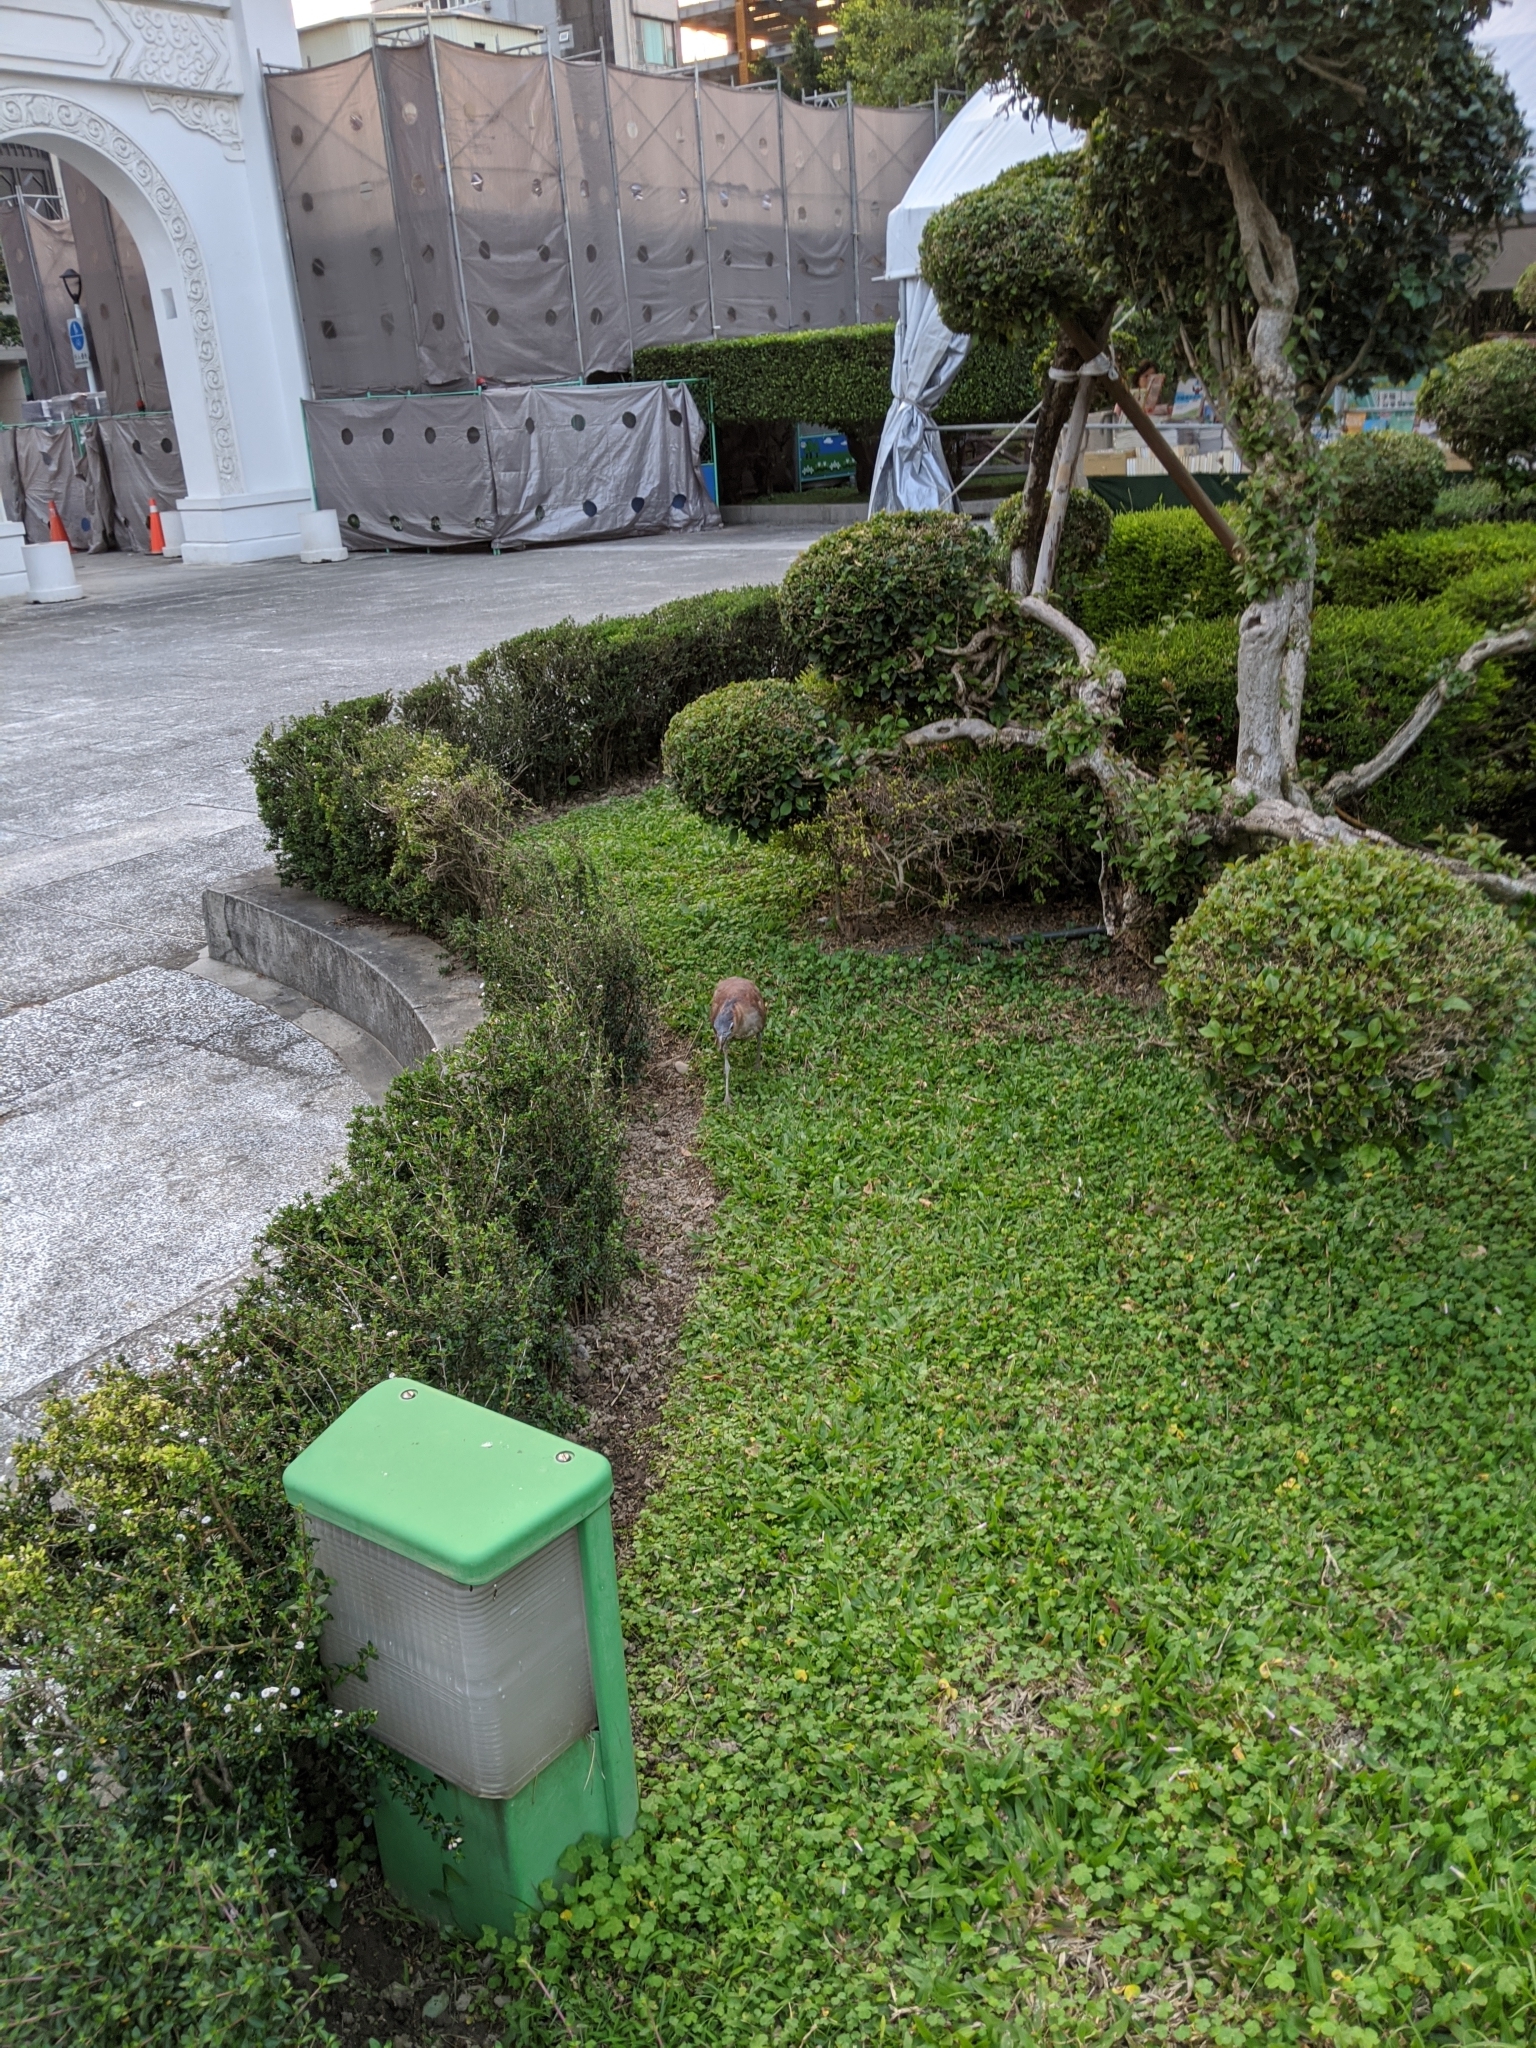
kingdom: Animalia
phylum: Chordata
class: Aves
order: Pelecaniformes
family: Ardeidae
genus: Gorsachius
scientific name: Gorsachius melanolophus
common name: Malayan night heron
